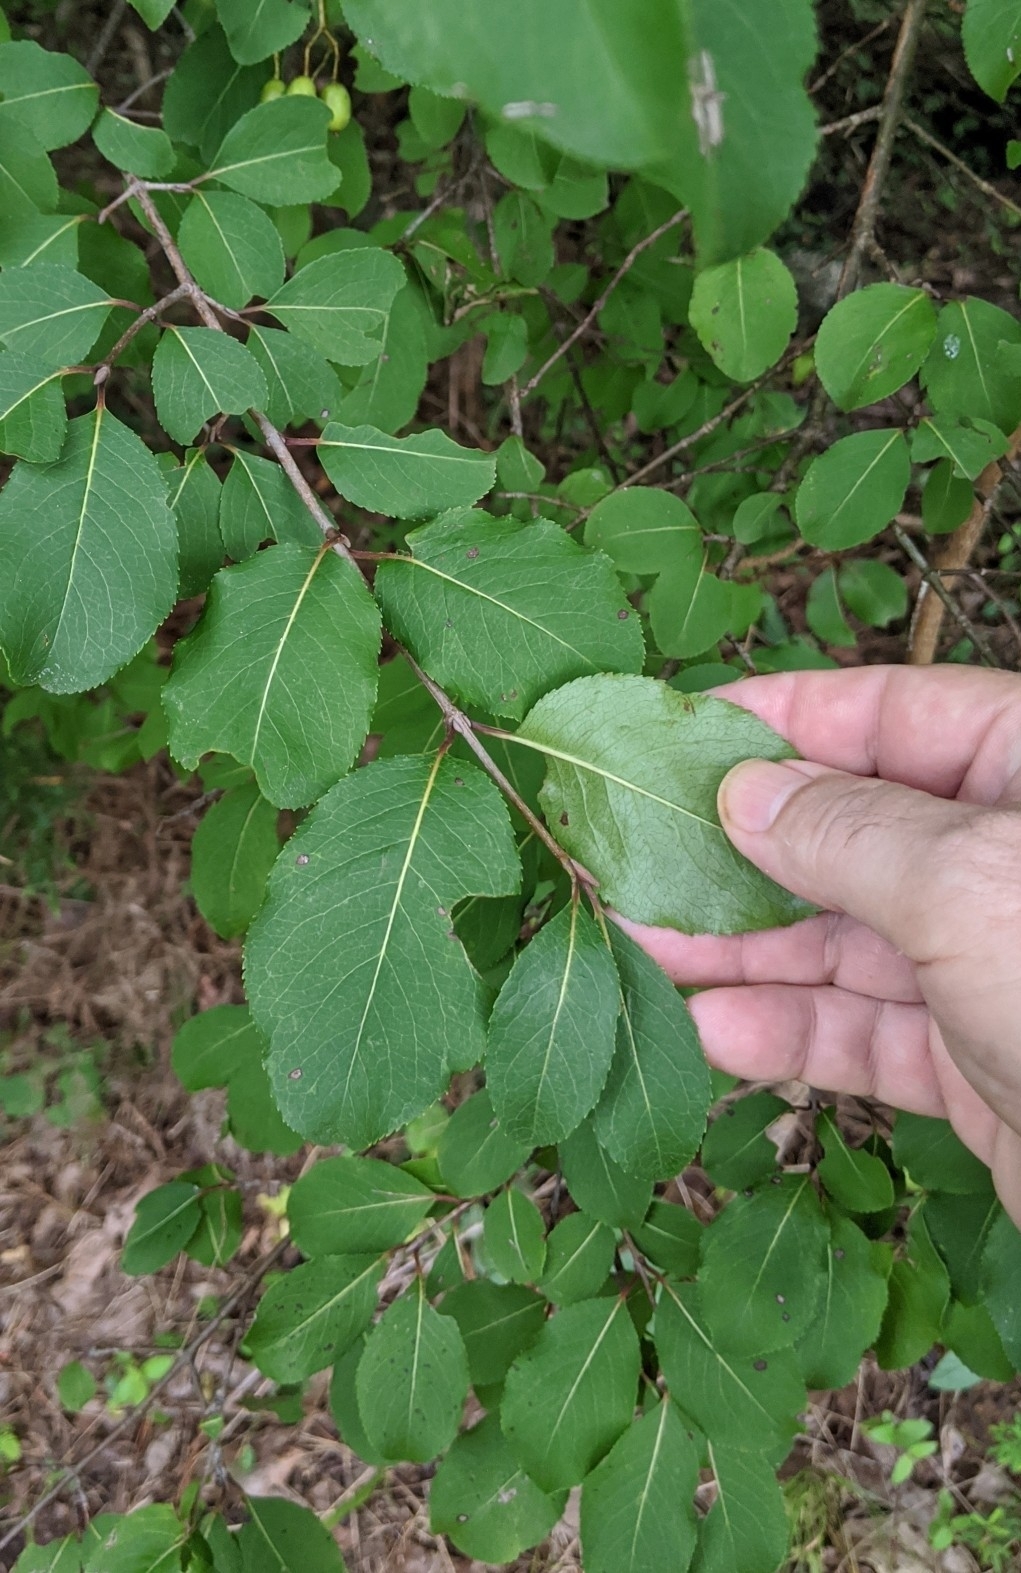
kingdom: Plantae
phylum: Tracheophyta
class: Magnoliopsida
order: Dipsacales
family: Viburnaceae
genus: Viburnum
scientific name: Viburnum prunifolium
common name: Black haw
